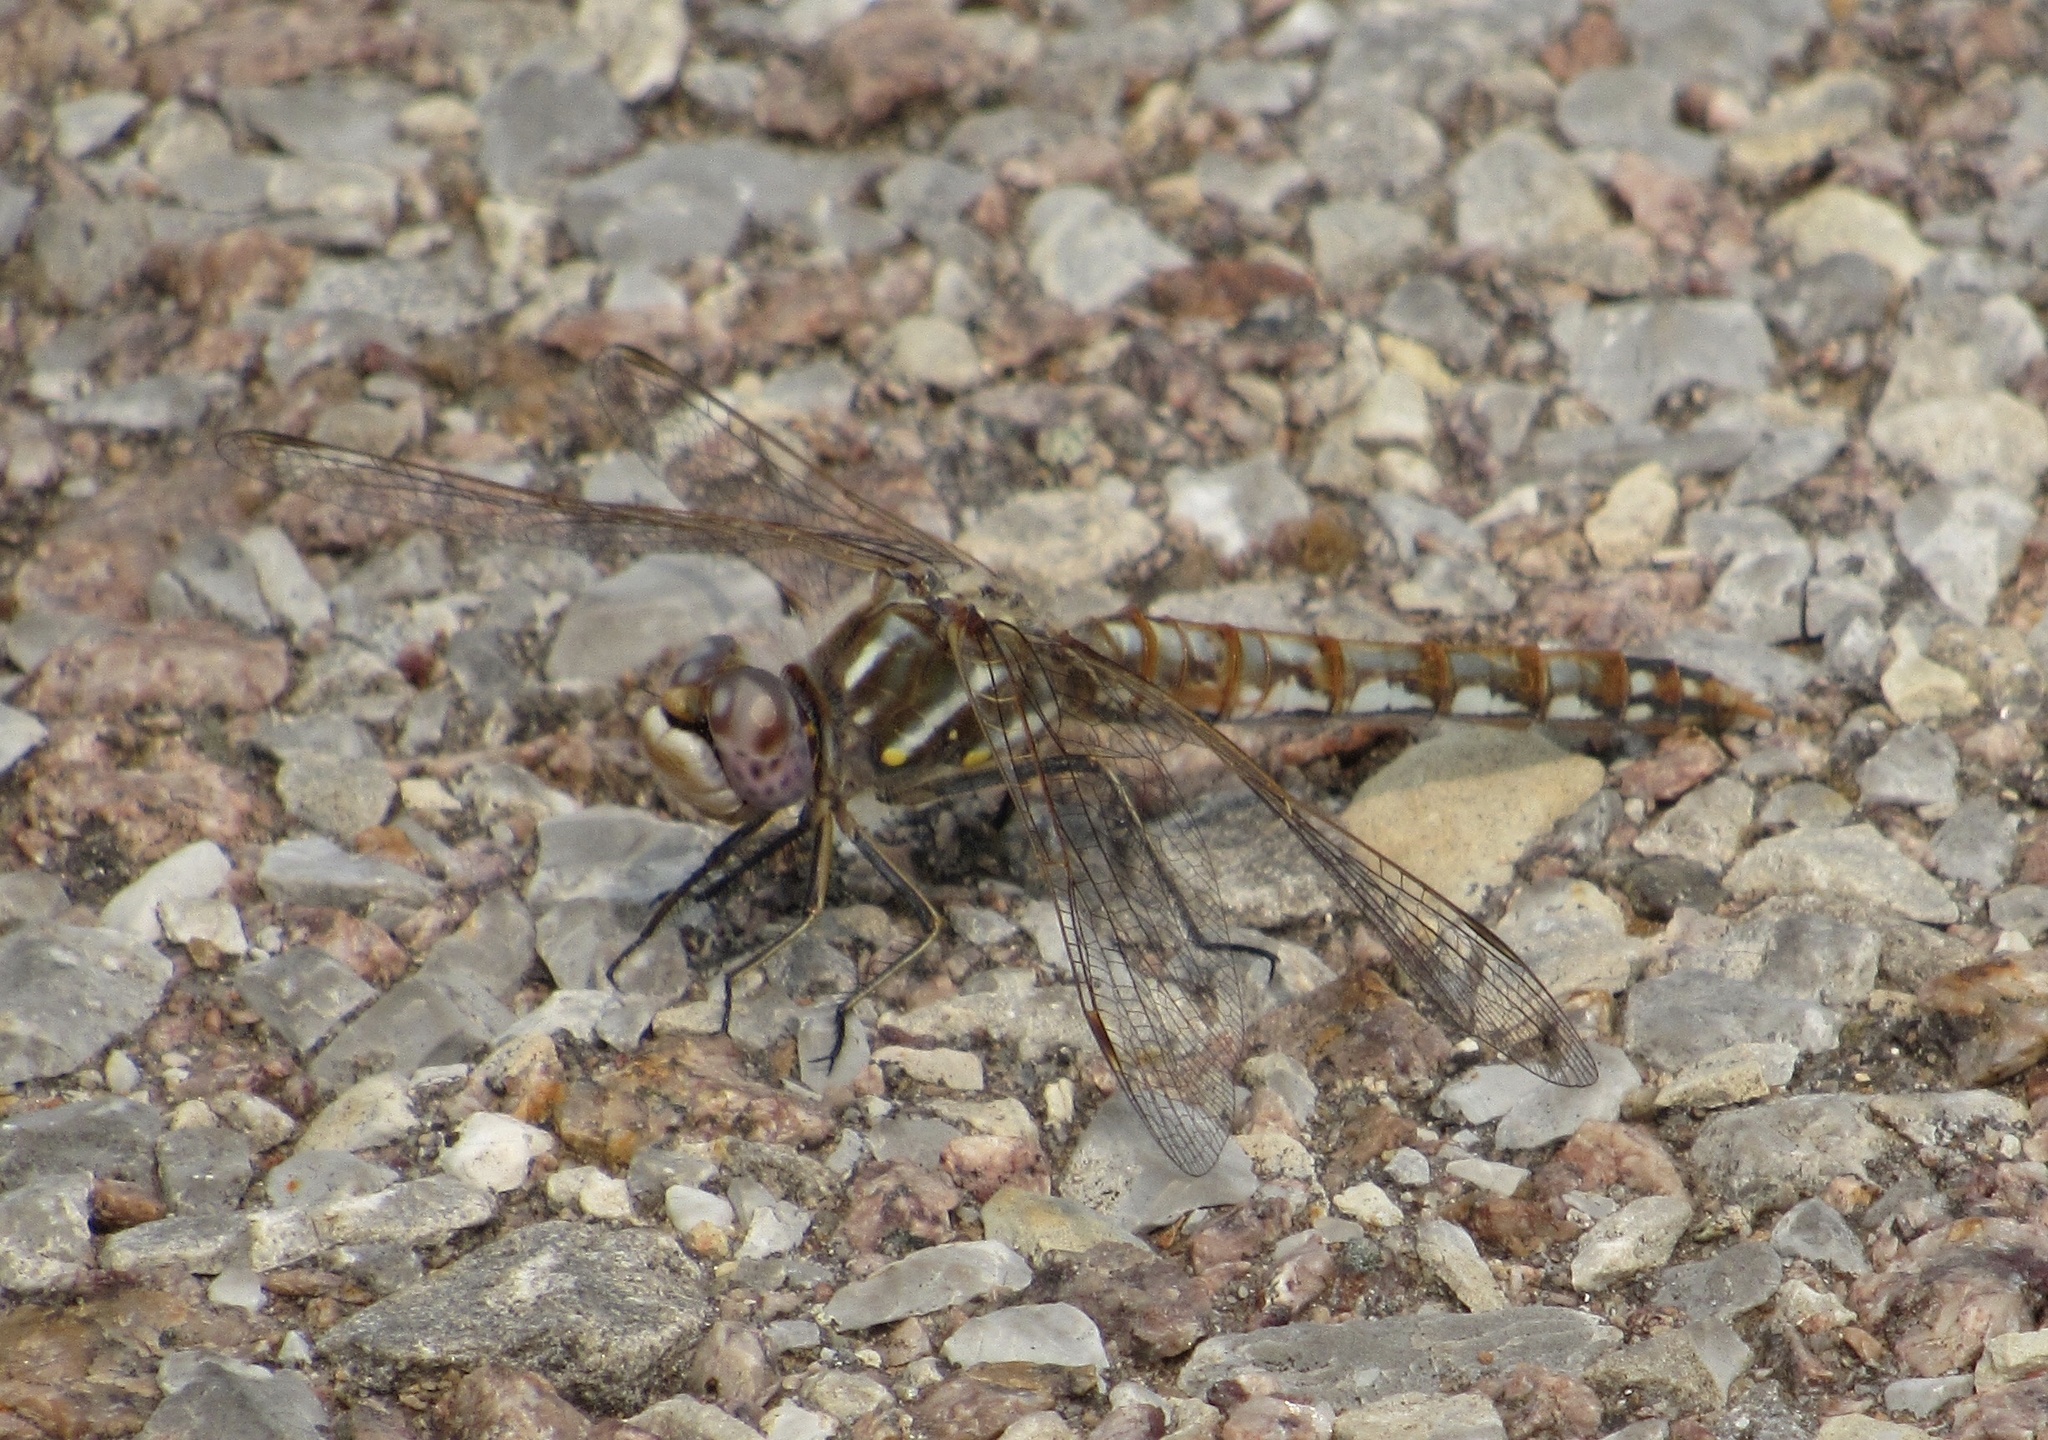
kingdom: Animalia
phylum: Arthropoda
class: Insecta
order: Odonata
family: Libellulidae
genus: Sympetrum
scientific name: Sympetrum corruptum
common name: Variegated meadowhawk
